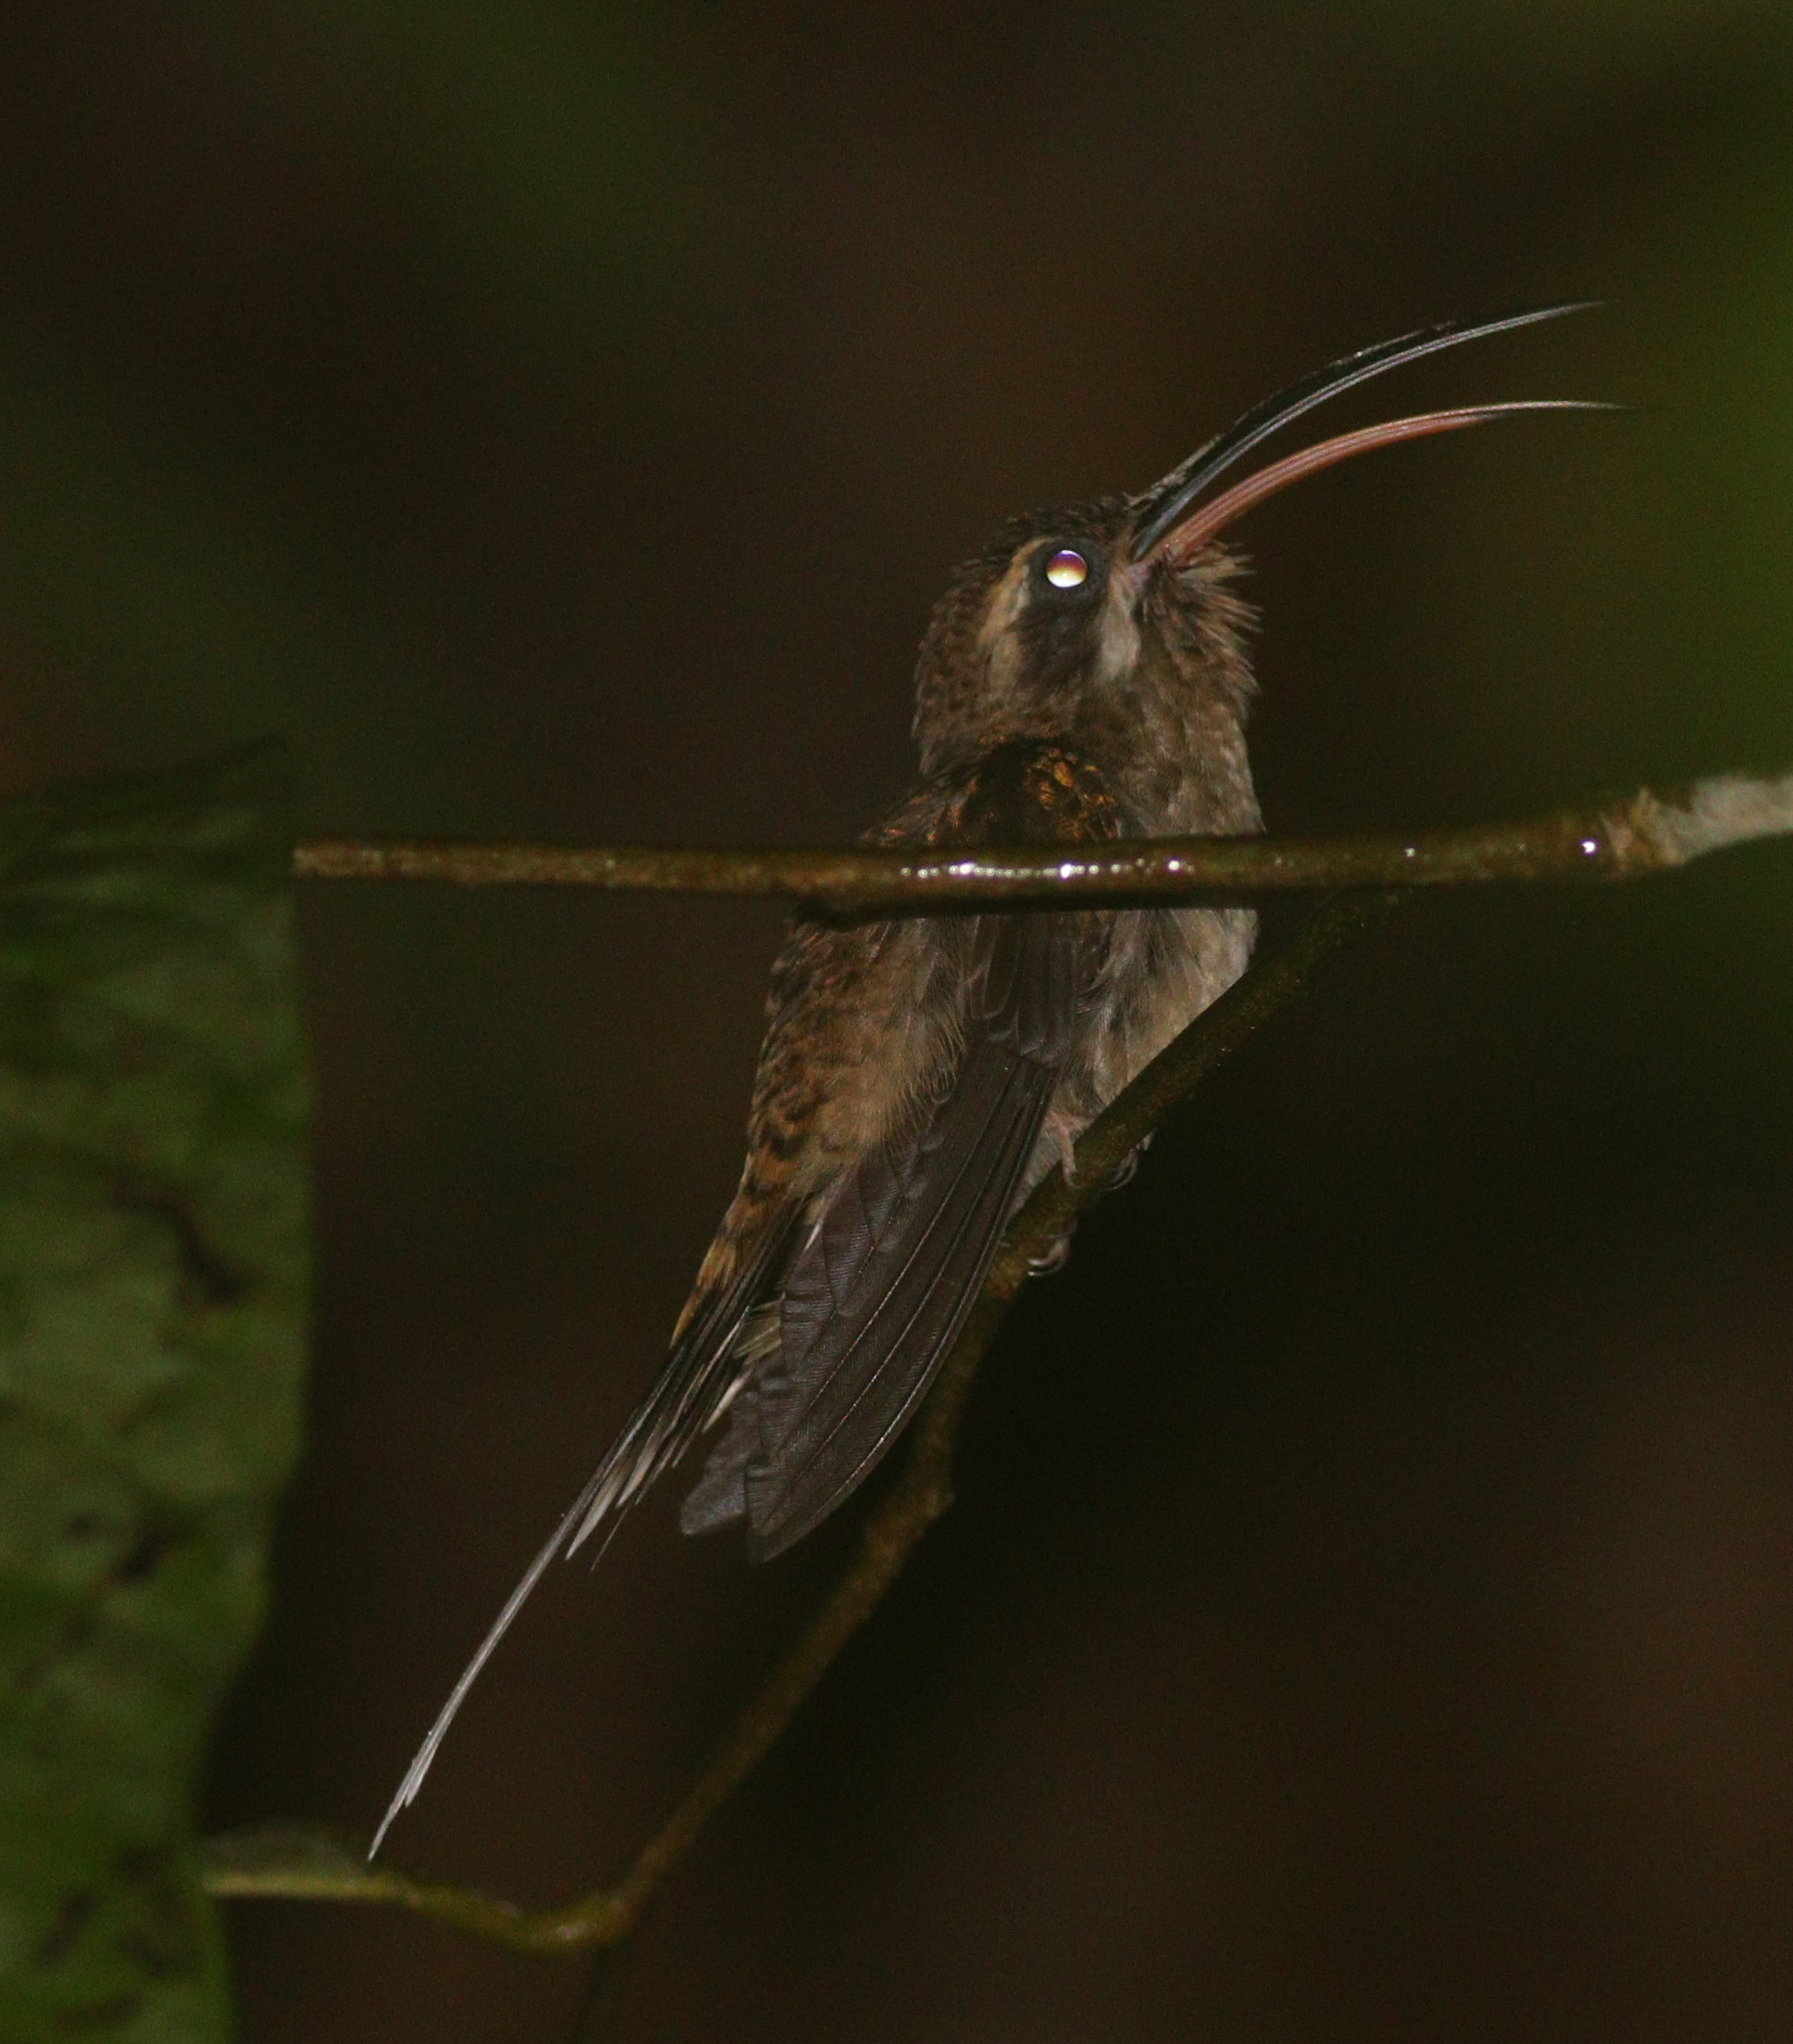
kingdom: Animalia
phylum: Chordata
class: Aves
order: Apodiformes
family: Trochilidae
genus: Phaethornis
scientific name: Phaethornis longirostris
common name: Long-billed hermit
